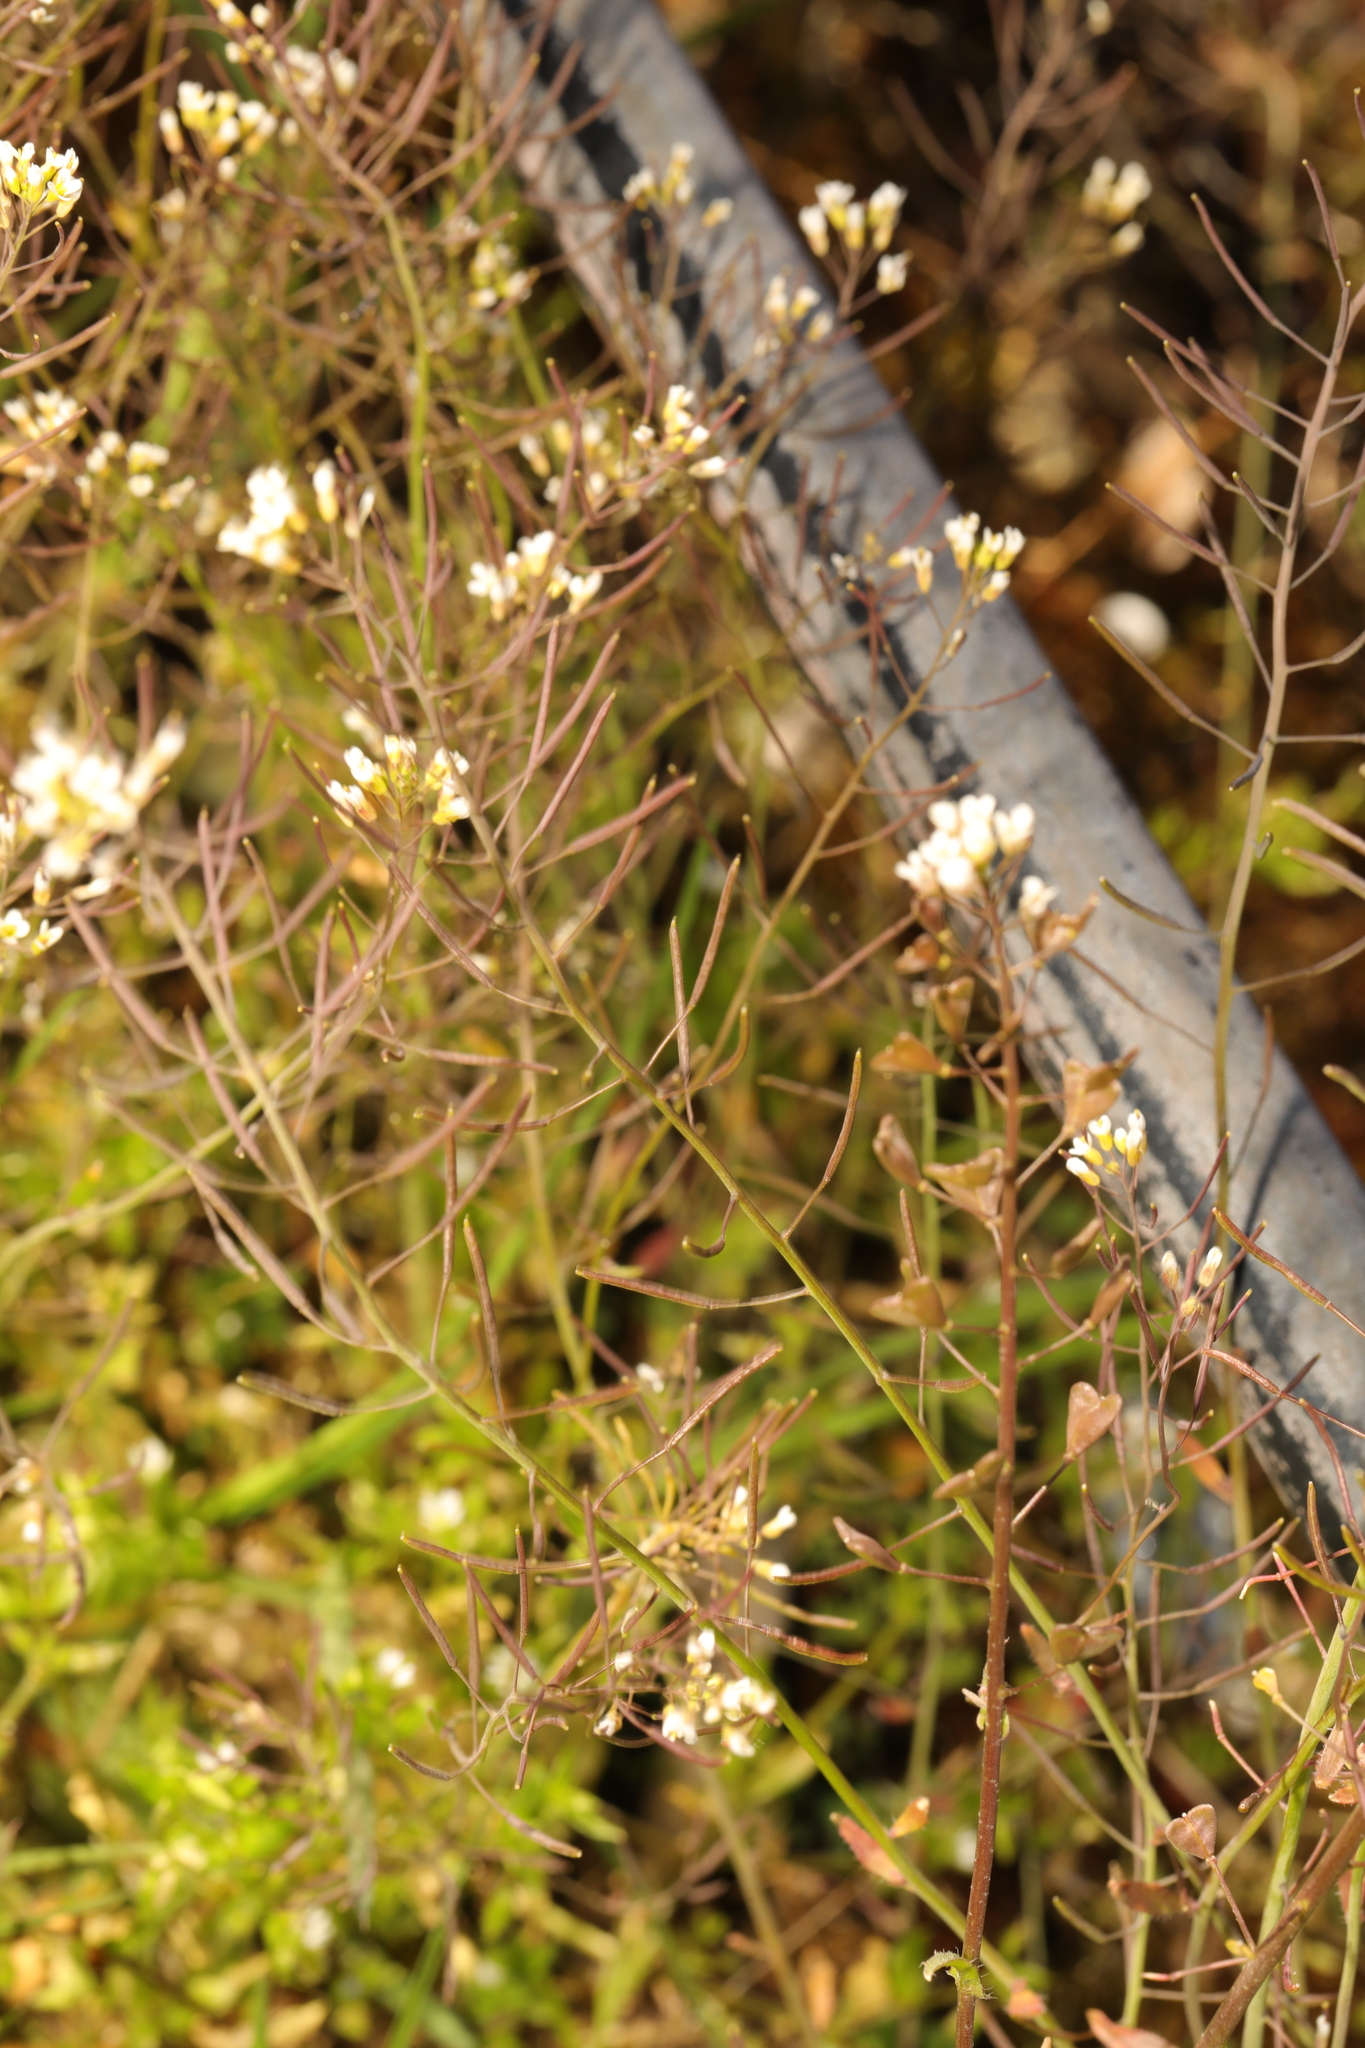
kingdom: Plantae
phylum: Tracheophyta
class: Magnoliopsida
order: Brassicales
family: Brassicaceae
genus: Arabidopsis
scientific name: Arabidopsis thaliana
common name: Thale cress
